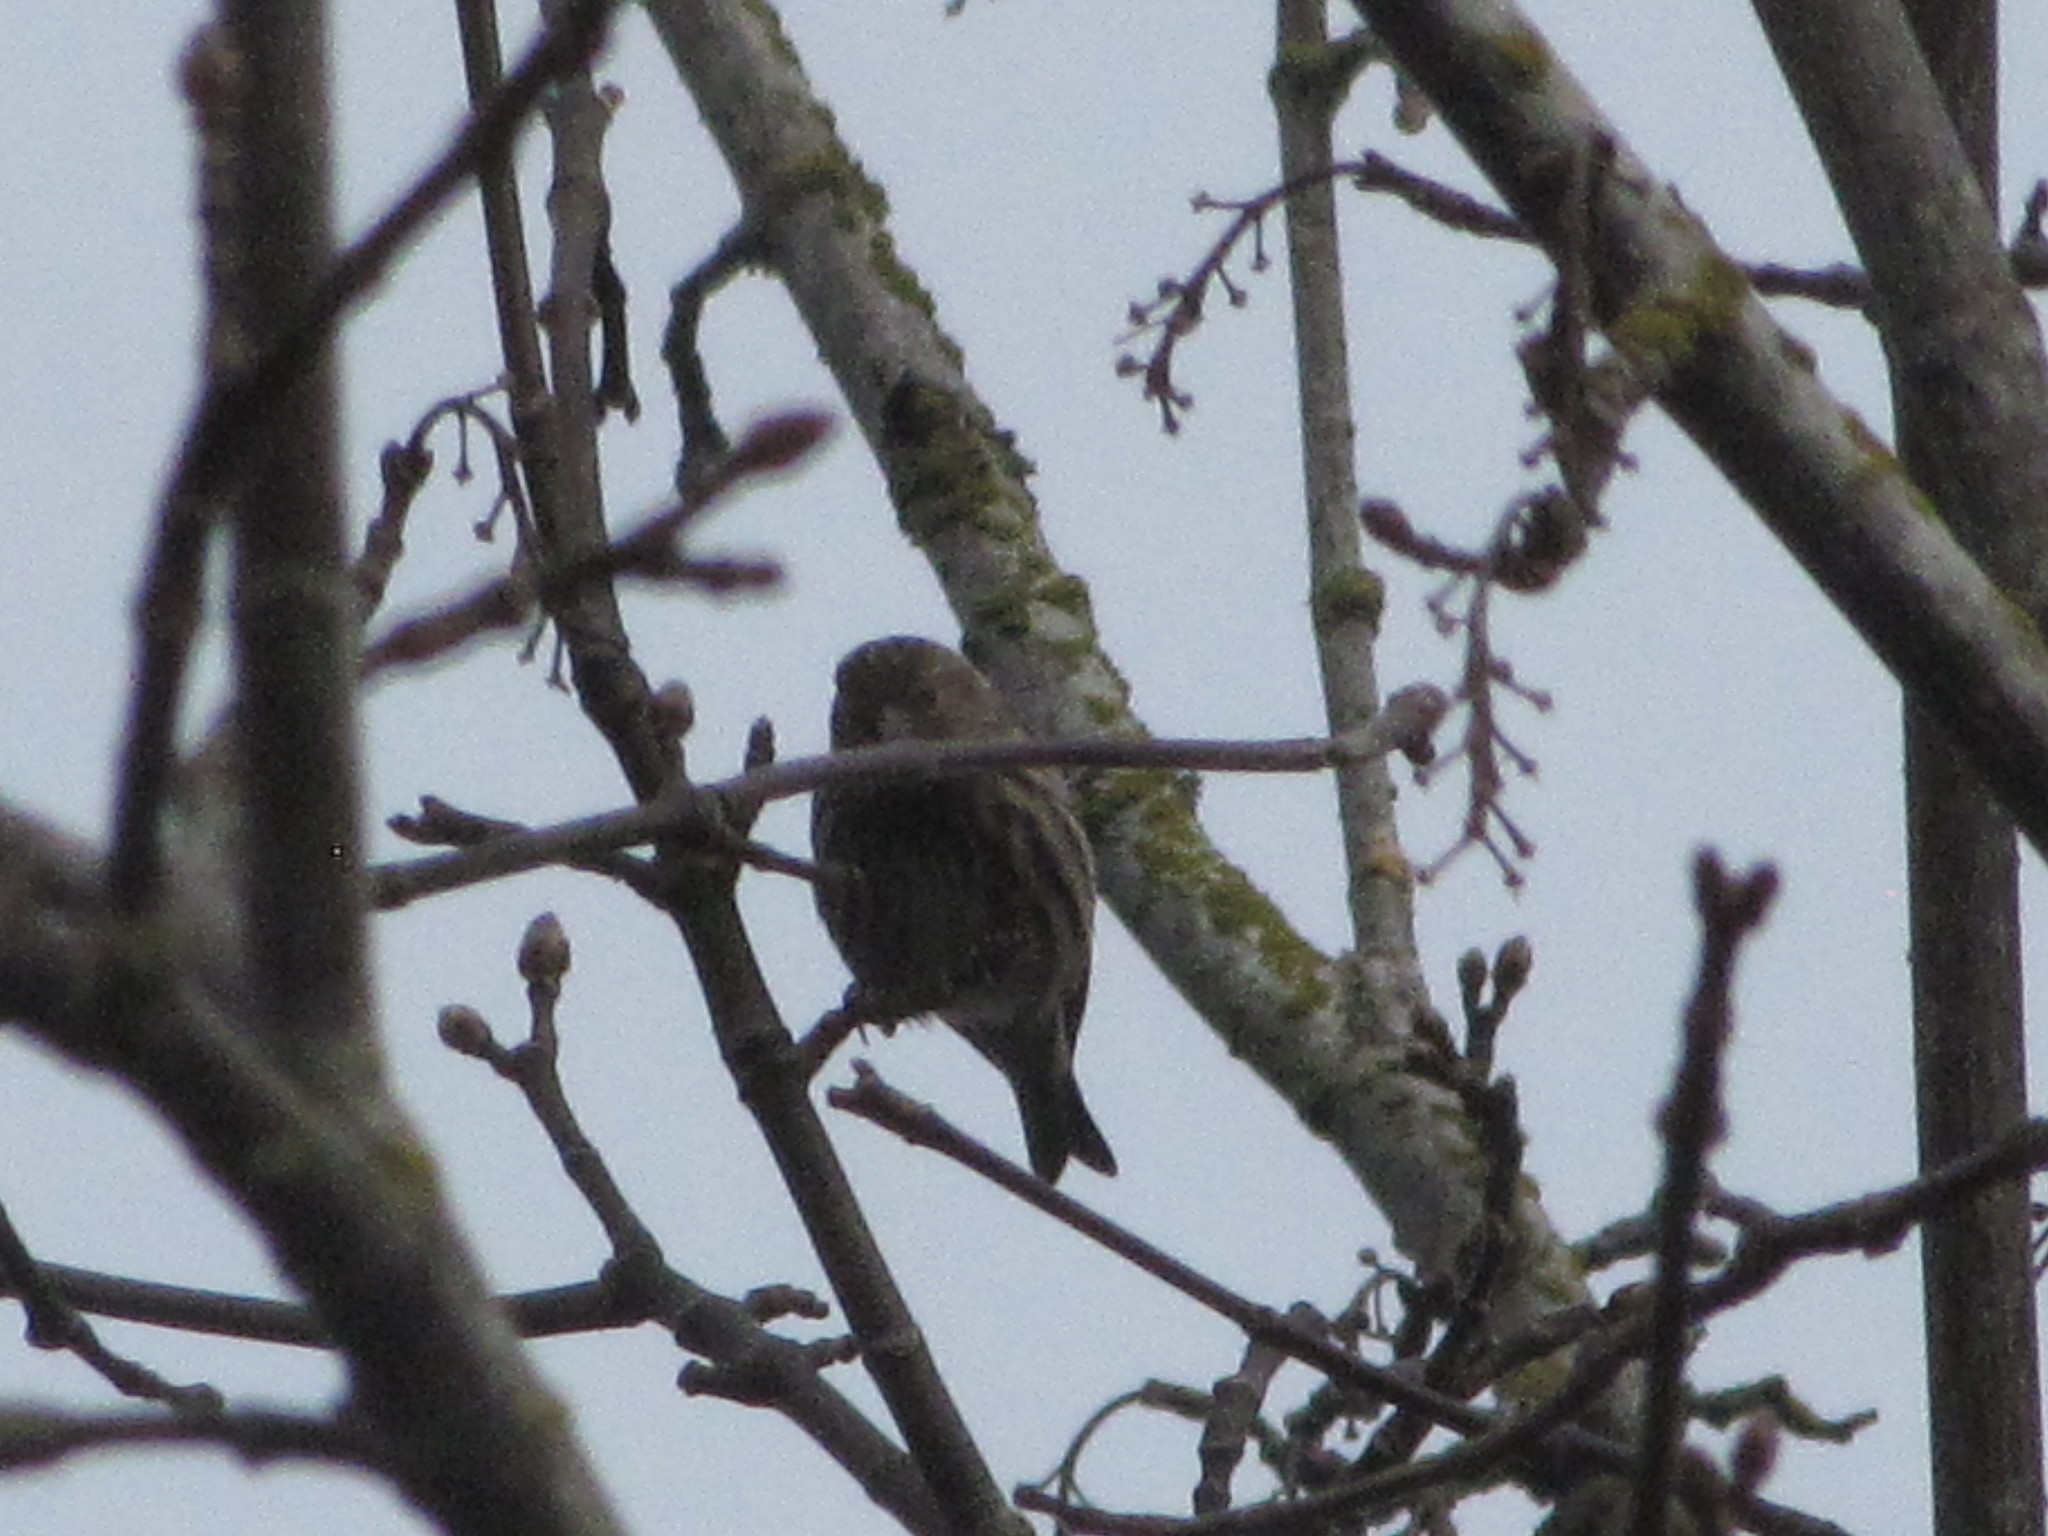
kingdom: Animalia
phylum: Chordata
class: Aves
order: Passeriformes
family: Fringillidae
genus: Spinus
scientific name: Spinus pinus
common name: Pine siskin
